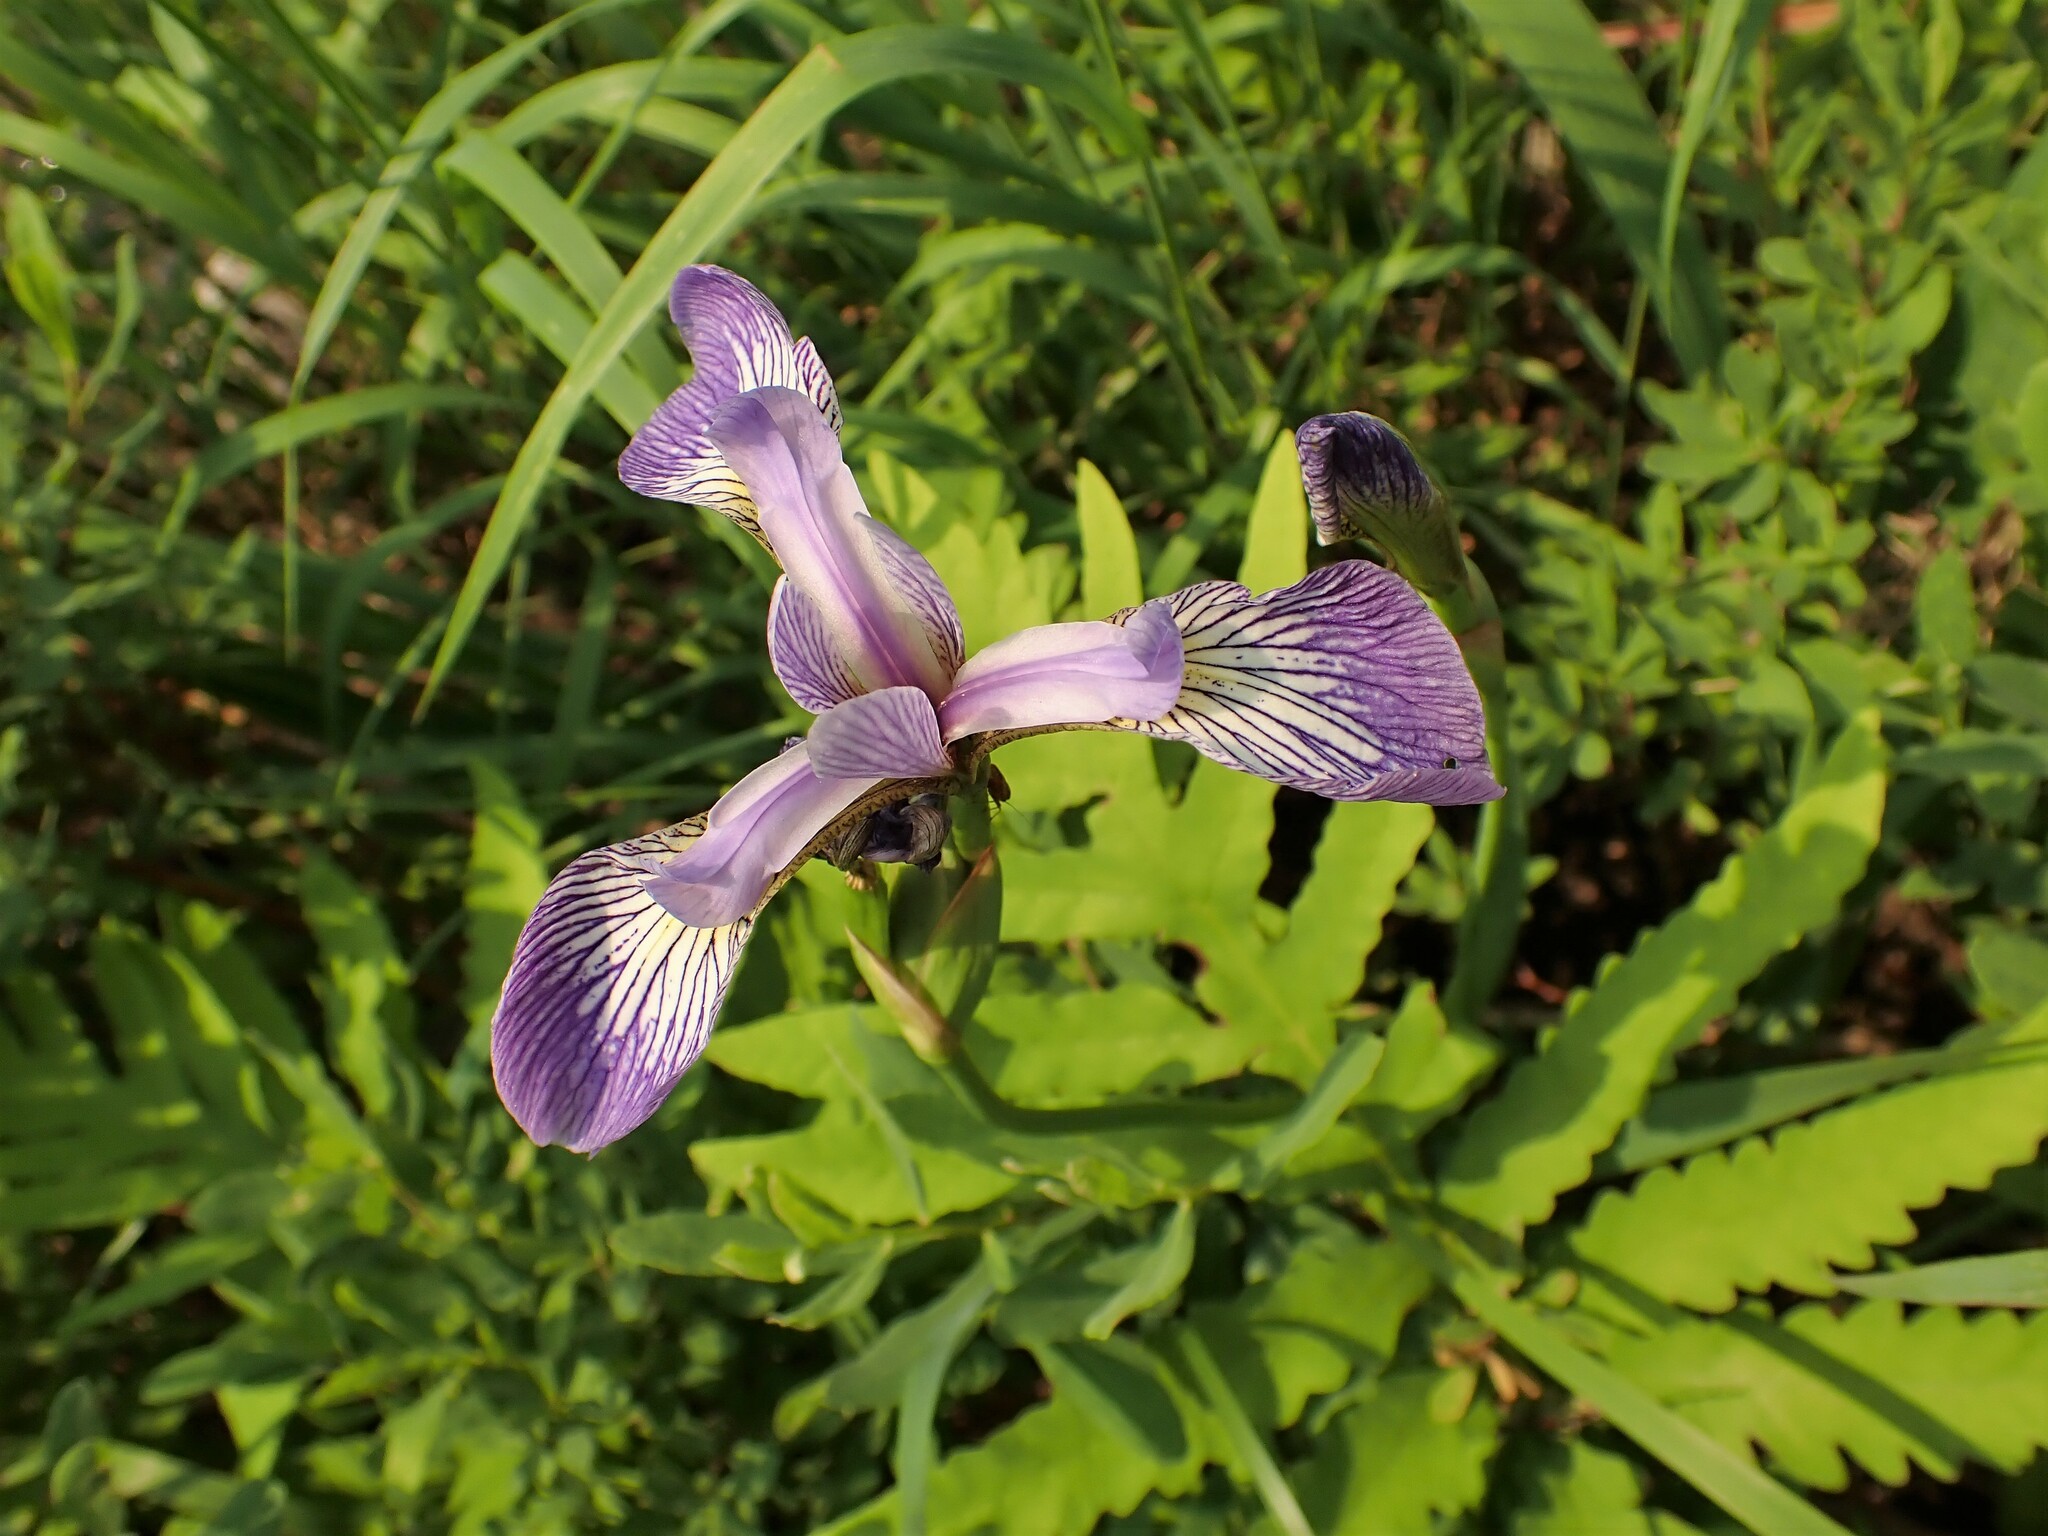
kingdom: Plantae
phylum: Tracheophyta
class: Liliopsida
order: Asparagales
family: Iridaceae
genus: Iris
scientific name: Iris versicolor
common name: Purple iris
